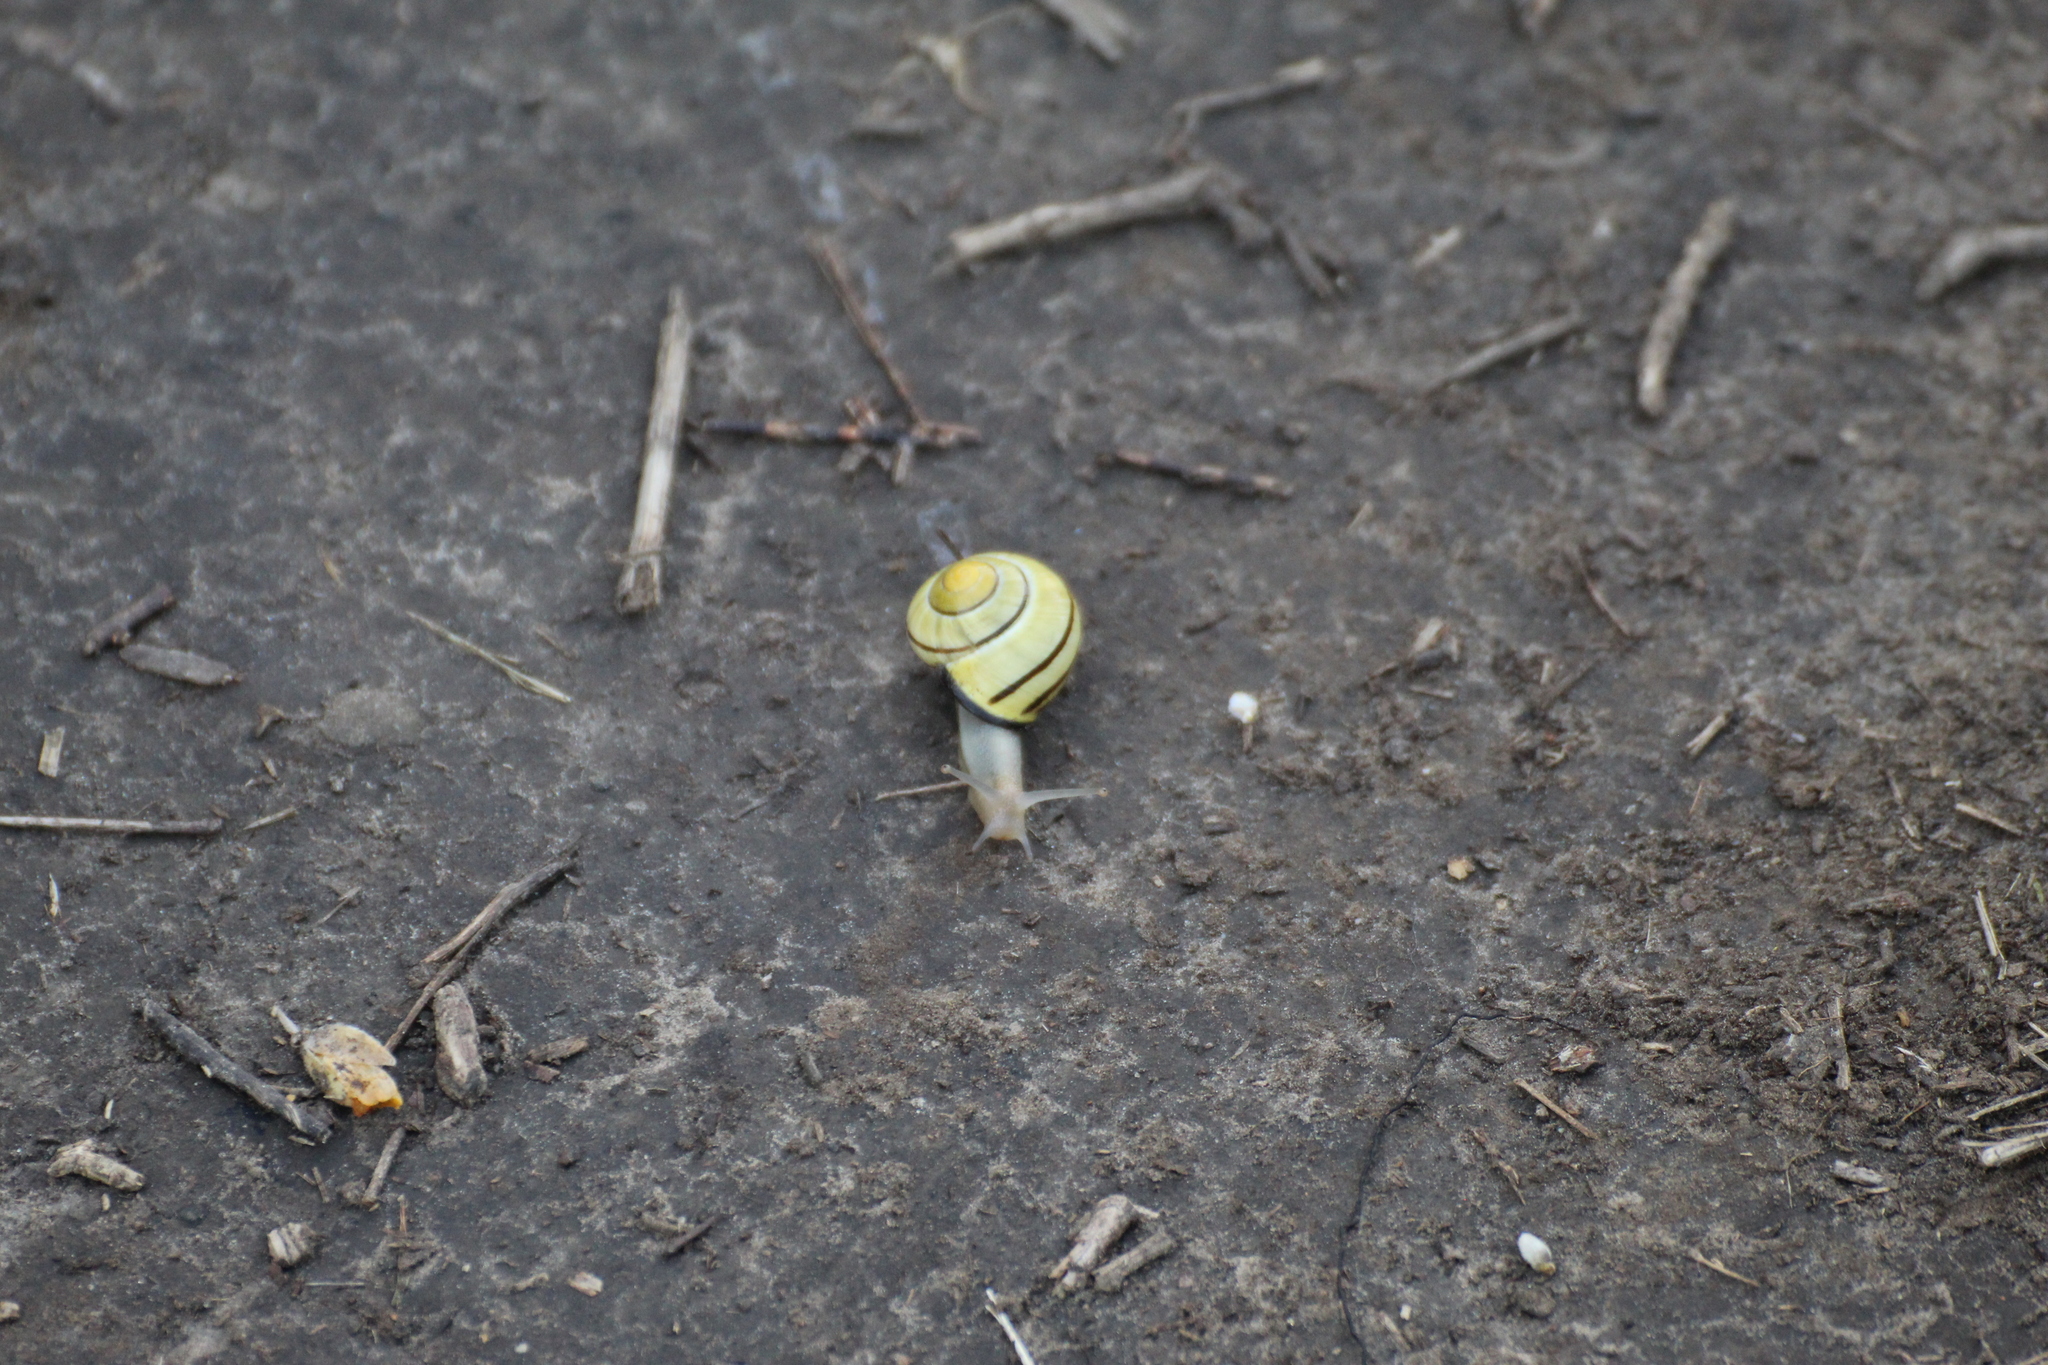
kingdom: Animalia
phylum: Mollusca
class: Gastropoda
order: Stylommatophora
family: Helicidae
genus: Cepaea
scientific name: Cepaea nemoralis
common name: Grovesnail
